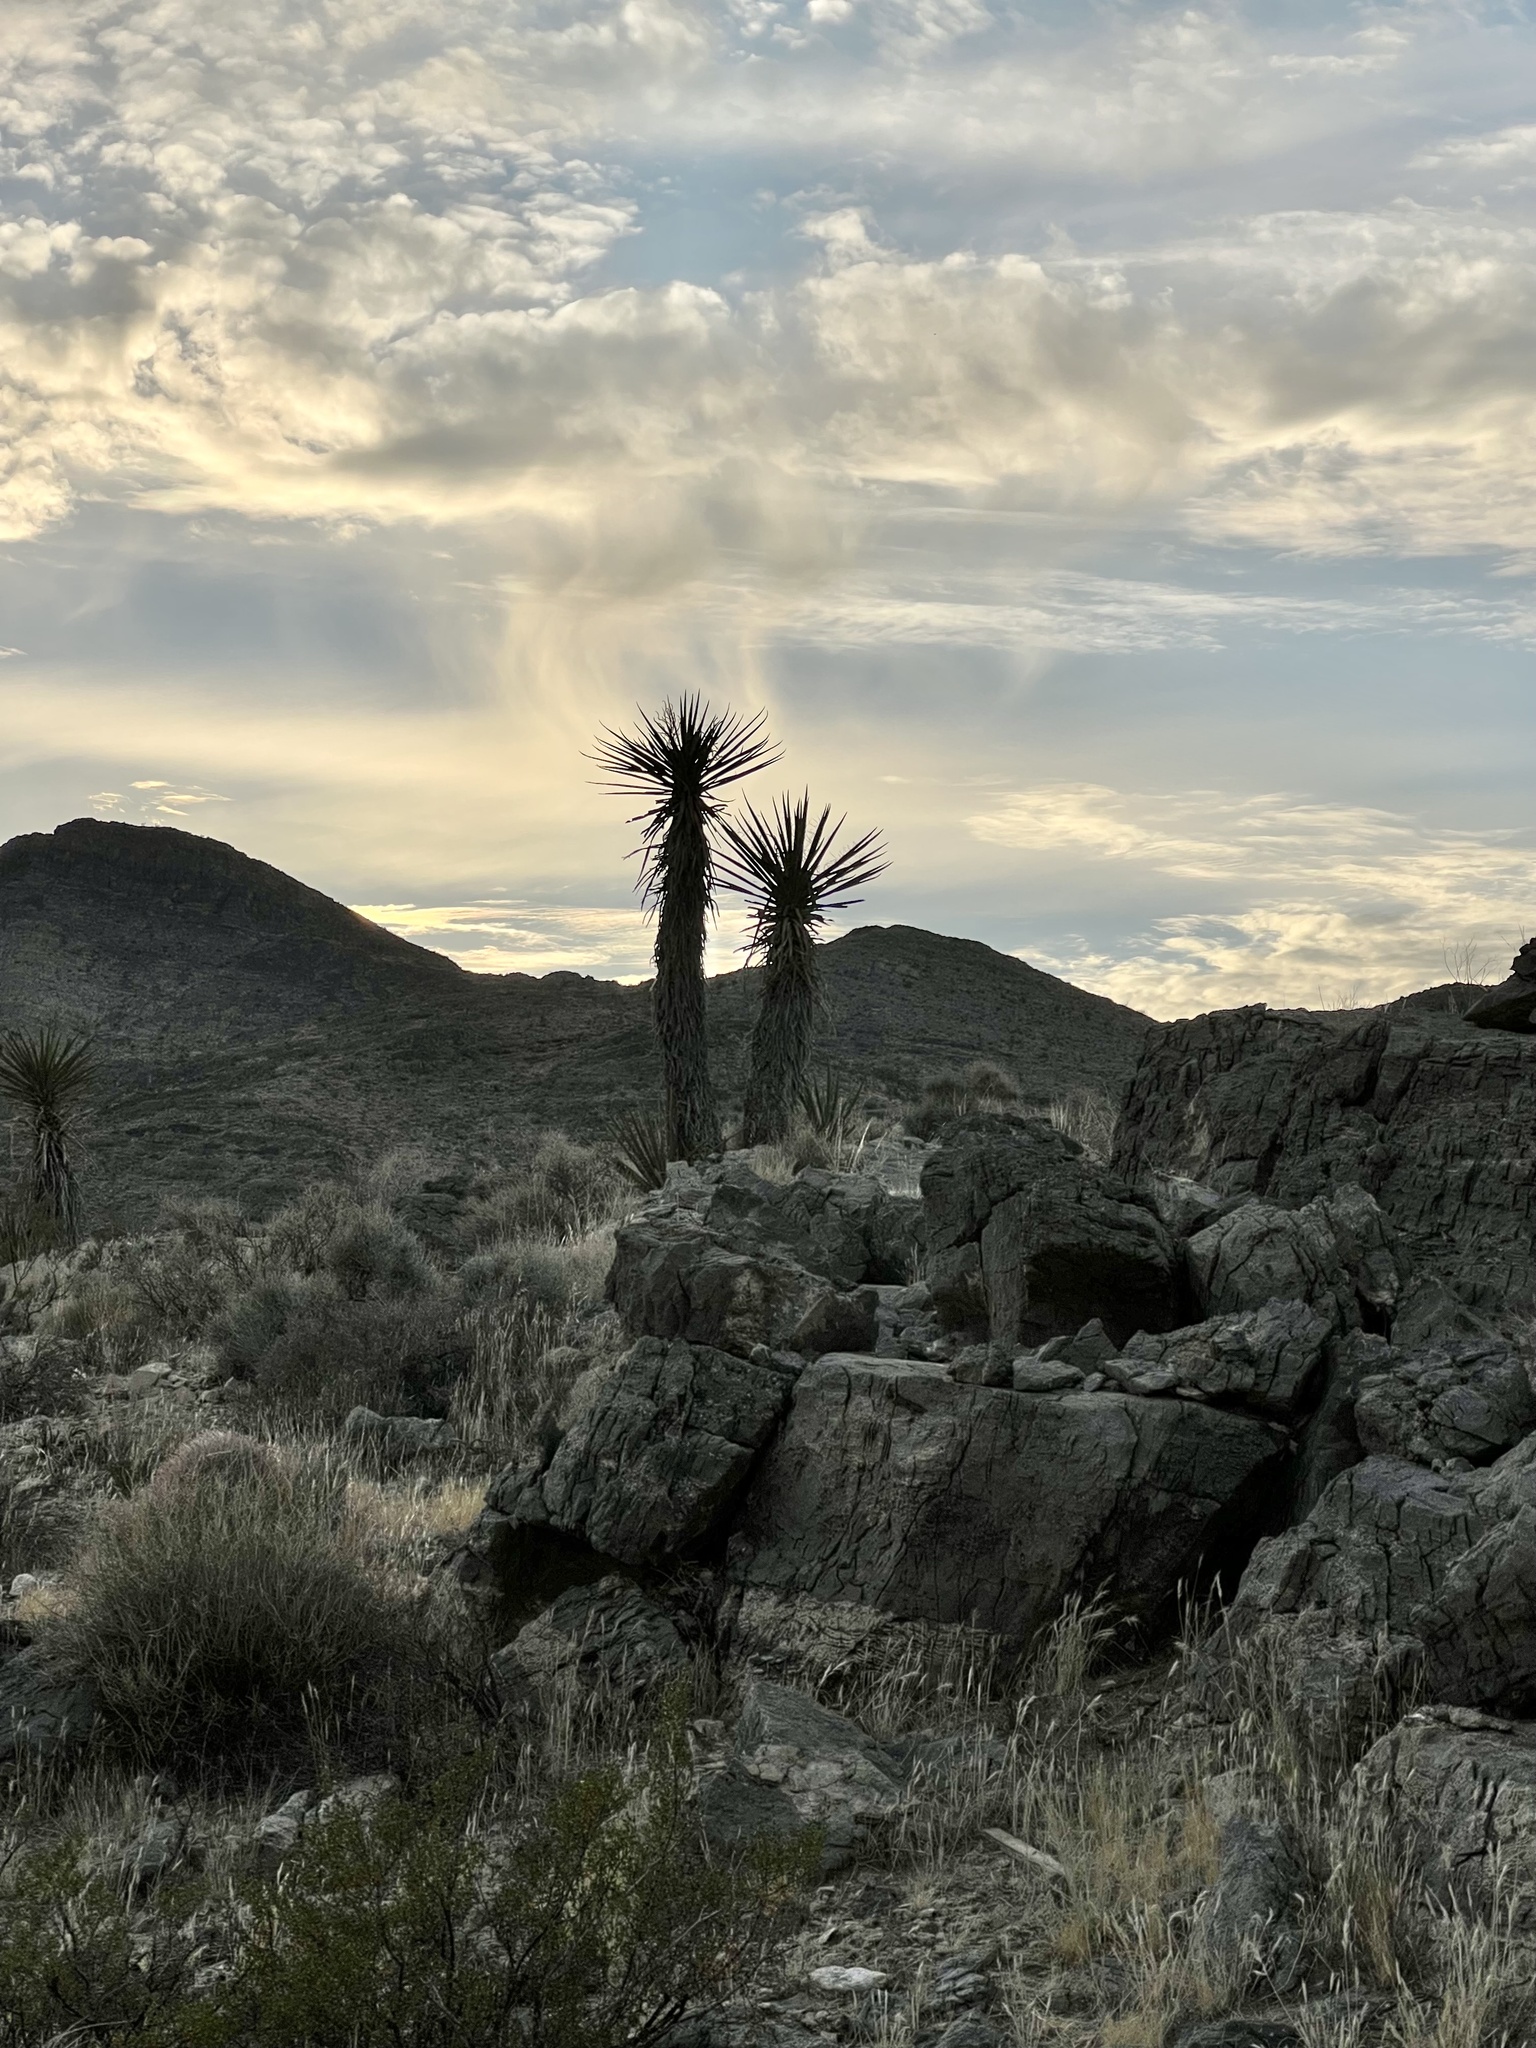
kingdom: Plantae
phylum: Tracheophyta
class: Liliopsida
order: Asparagales
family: Asparagaceae
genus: Yucca
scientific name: Yucca schidigera
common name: Mojave yucca
